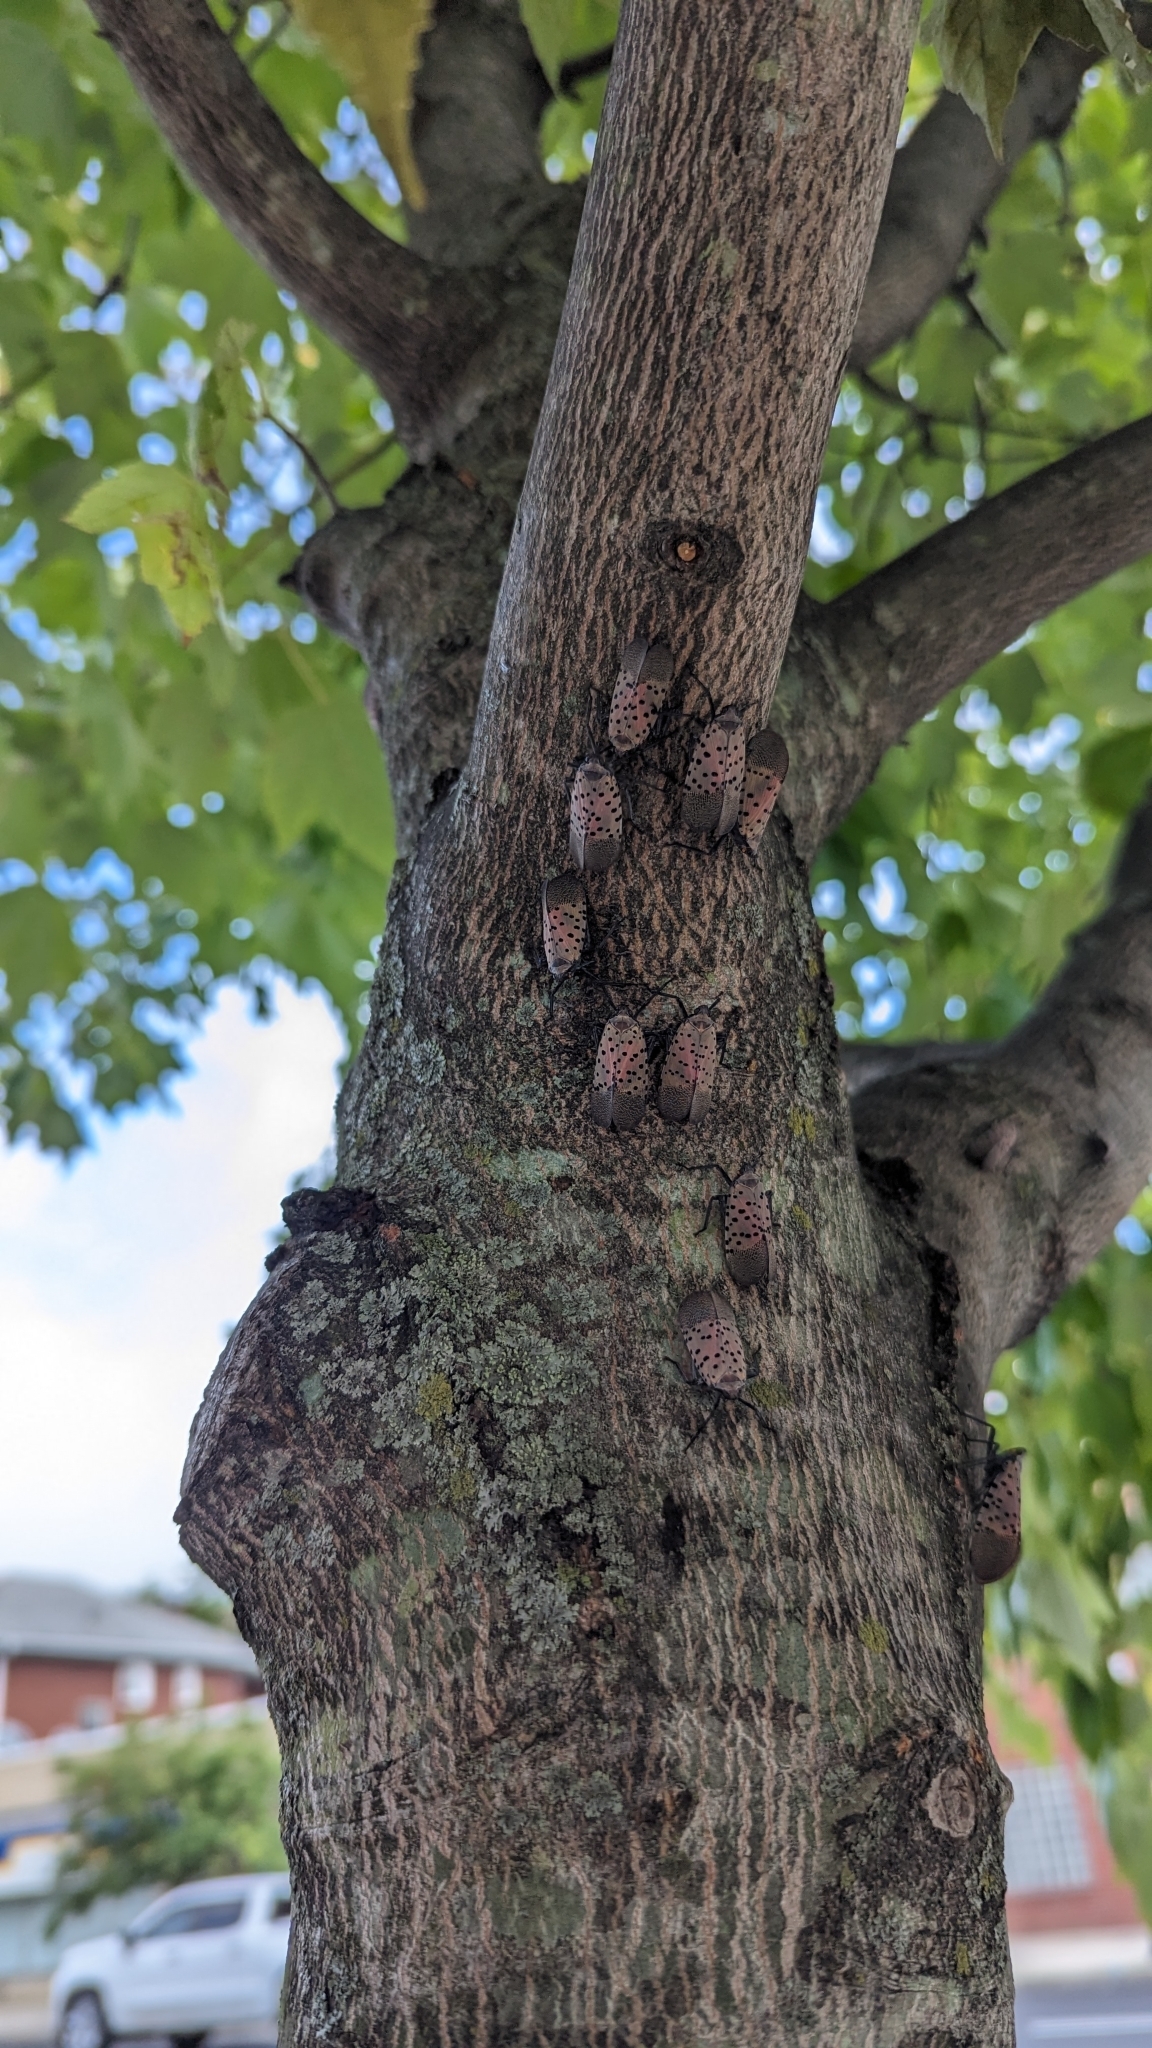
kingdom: Animalia
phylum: Arthropoda
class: Insecta
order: Hemiptera
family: Fulgoridae
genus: Lycorma
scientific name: Lycorma delicatula
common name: Spotted lanternfly
